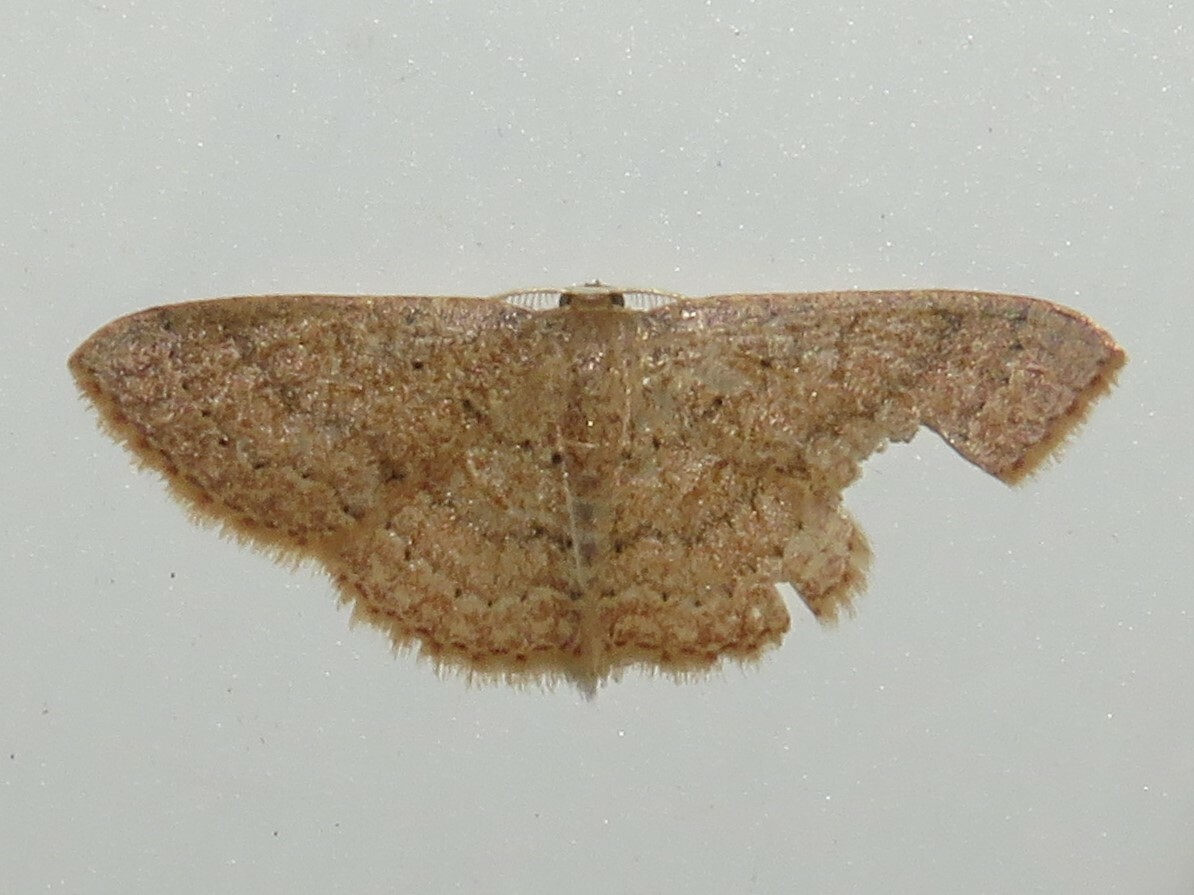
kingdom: Animalia
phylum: Arthropoda
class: Insecta
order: Lepidoptera
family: Geometridae
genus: Pleuroprucha
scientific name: Pleuroprucha insulsaria
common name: Common tan wave
